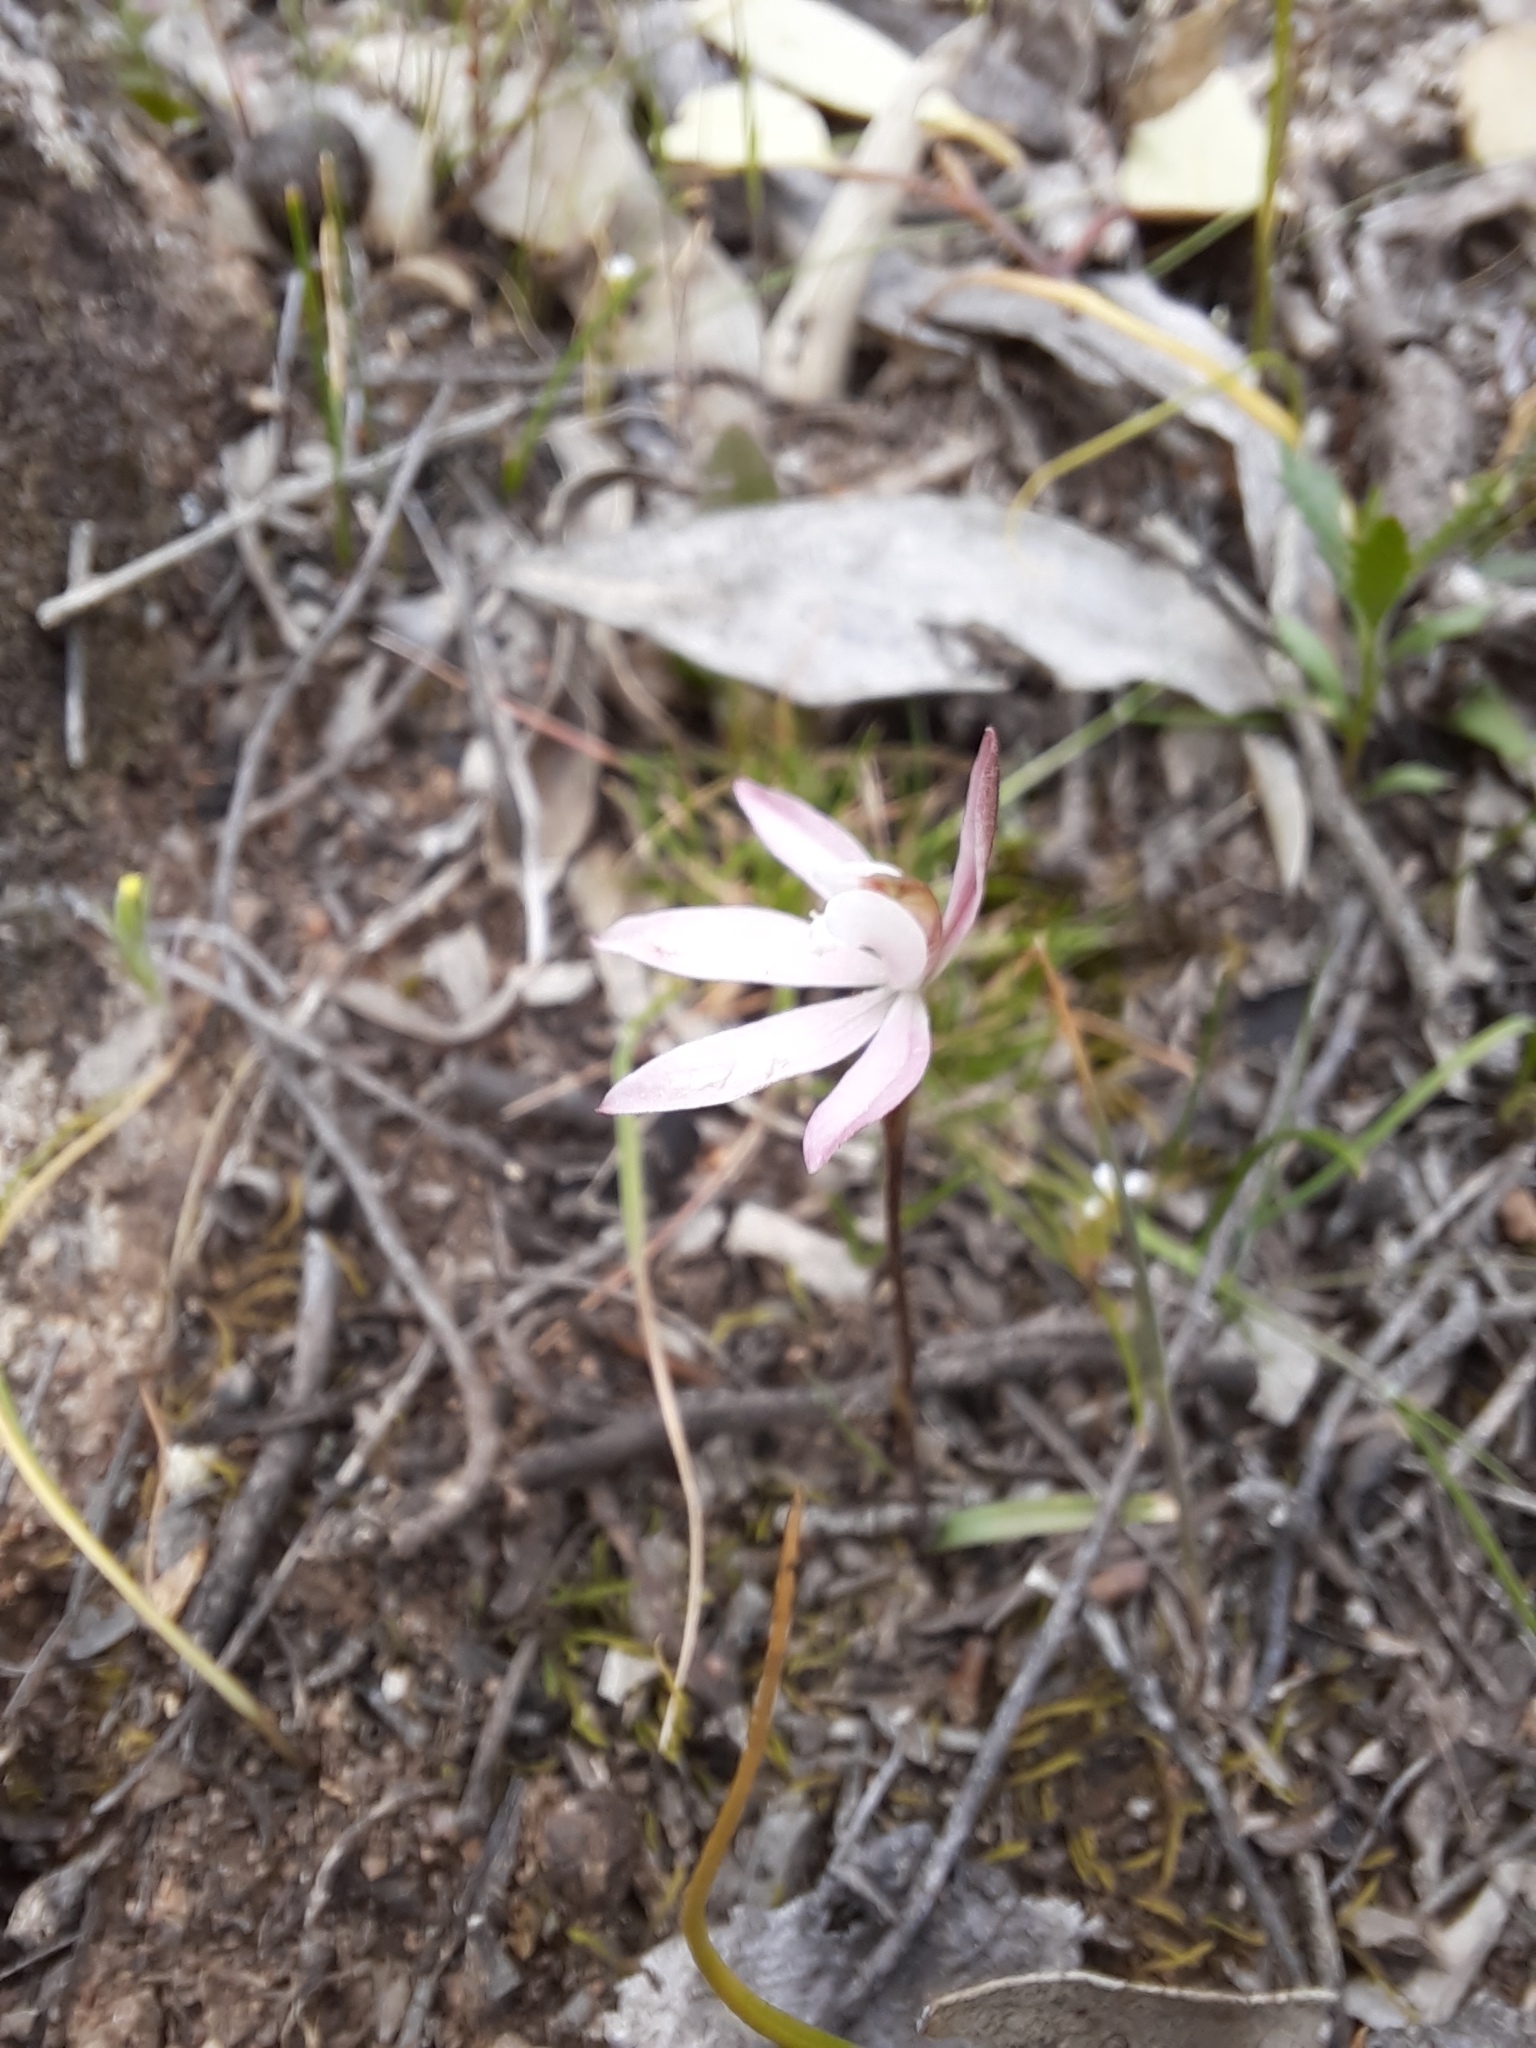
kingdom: Plantae
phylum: Tracheophyta
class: Liliopsida
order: Asparagales
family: Orchidaceae
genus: Caladenia
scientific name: Caladenia fuscata
